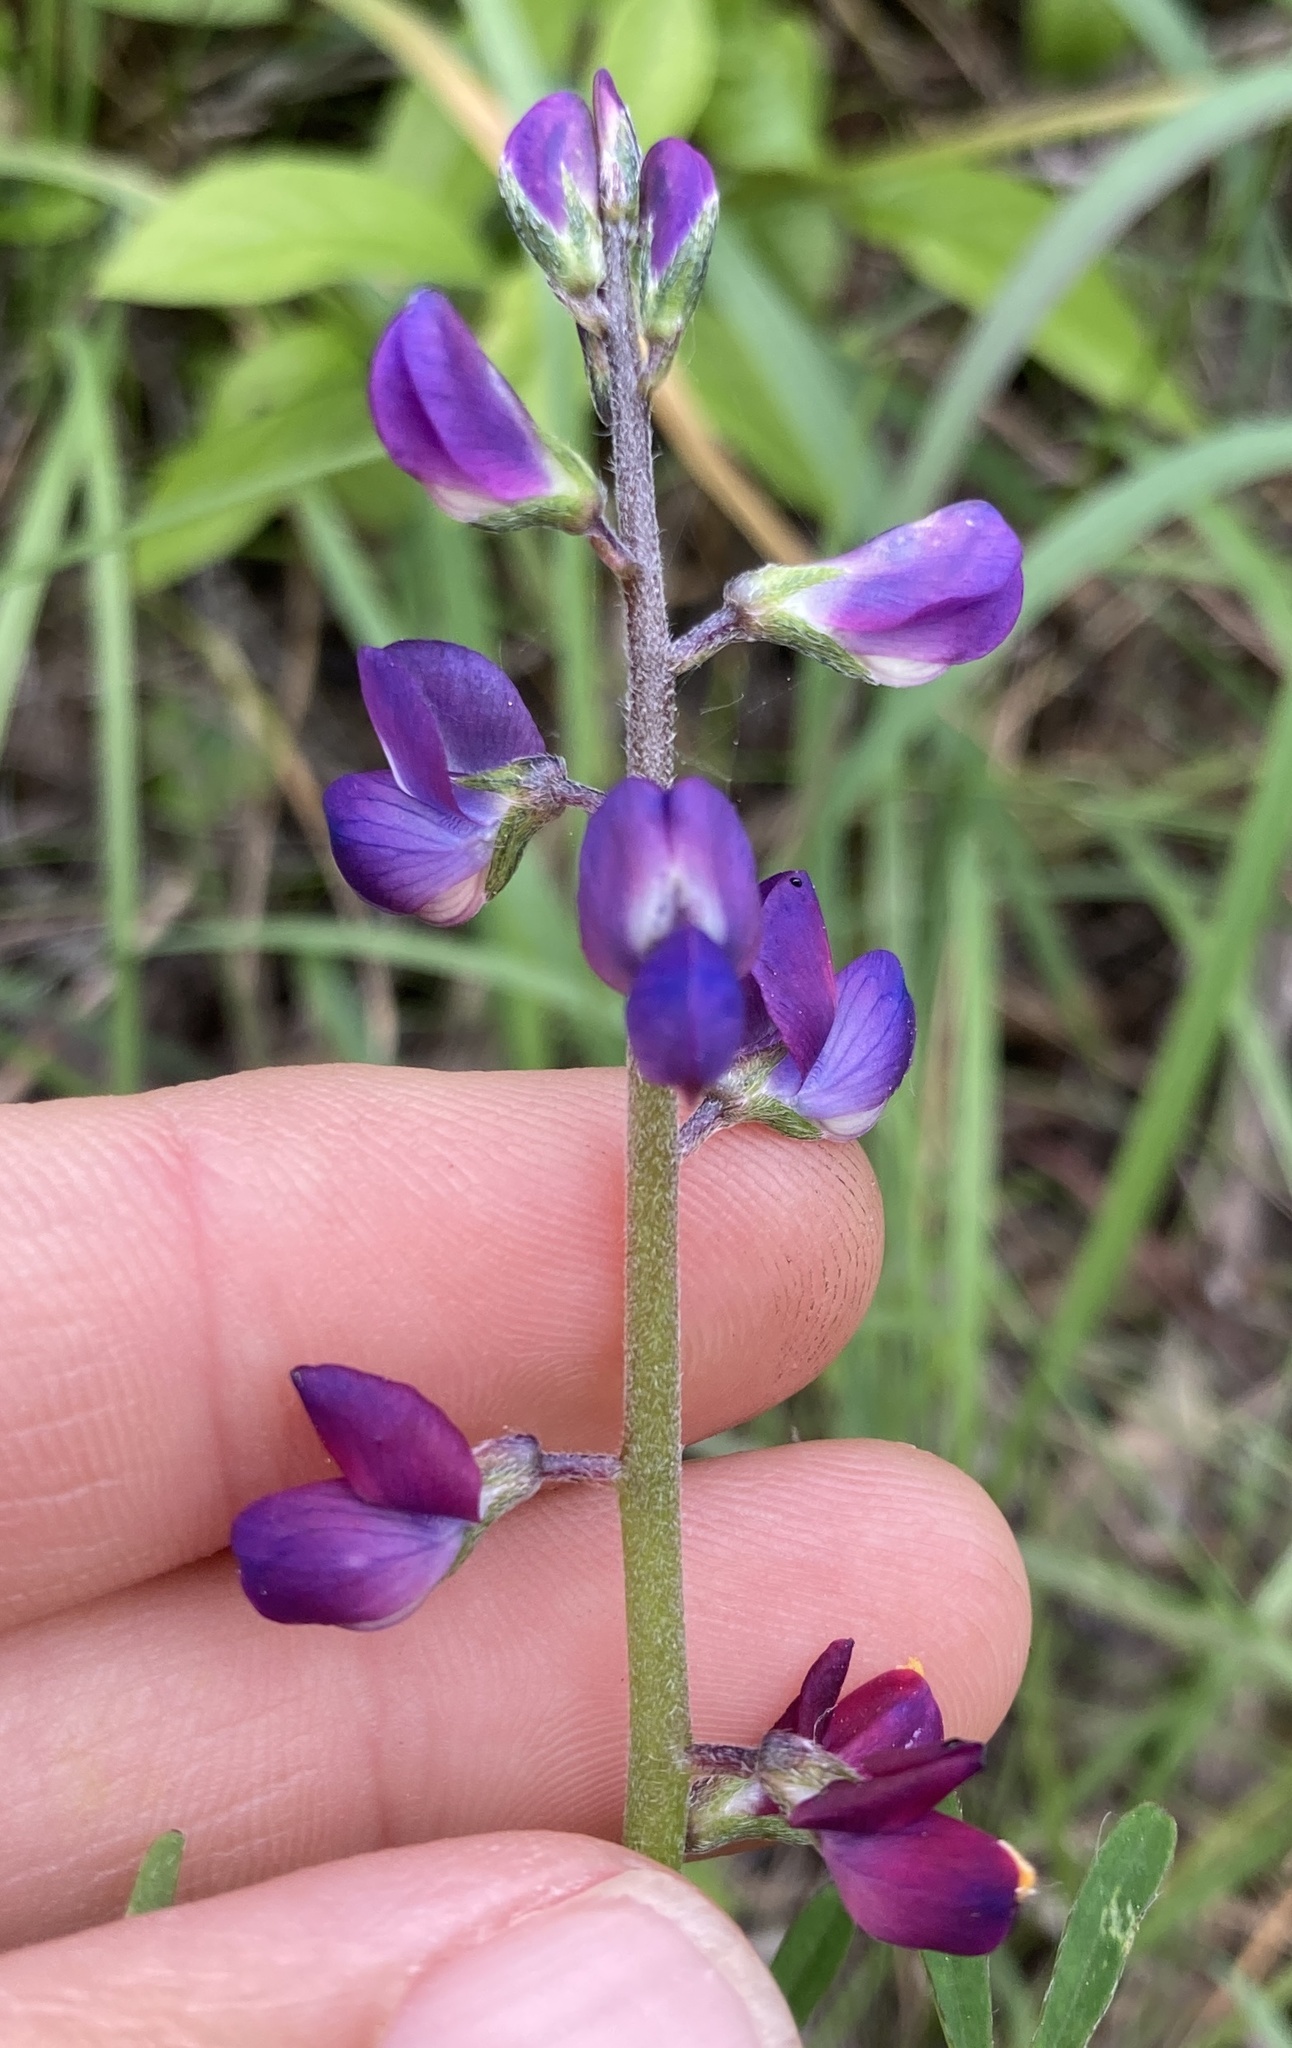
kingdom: Plantae
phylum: Tracheophyta
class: Magnoliopsida
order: Fabales
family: Fabaceae
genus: Lupinus
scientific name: Lupinus truncatus
